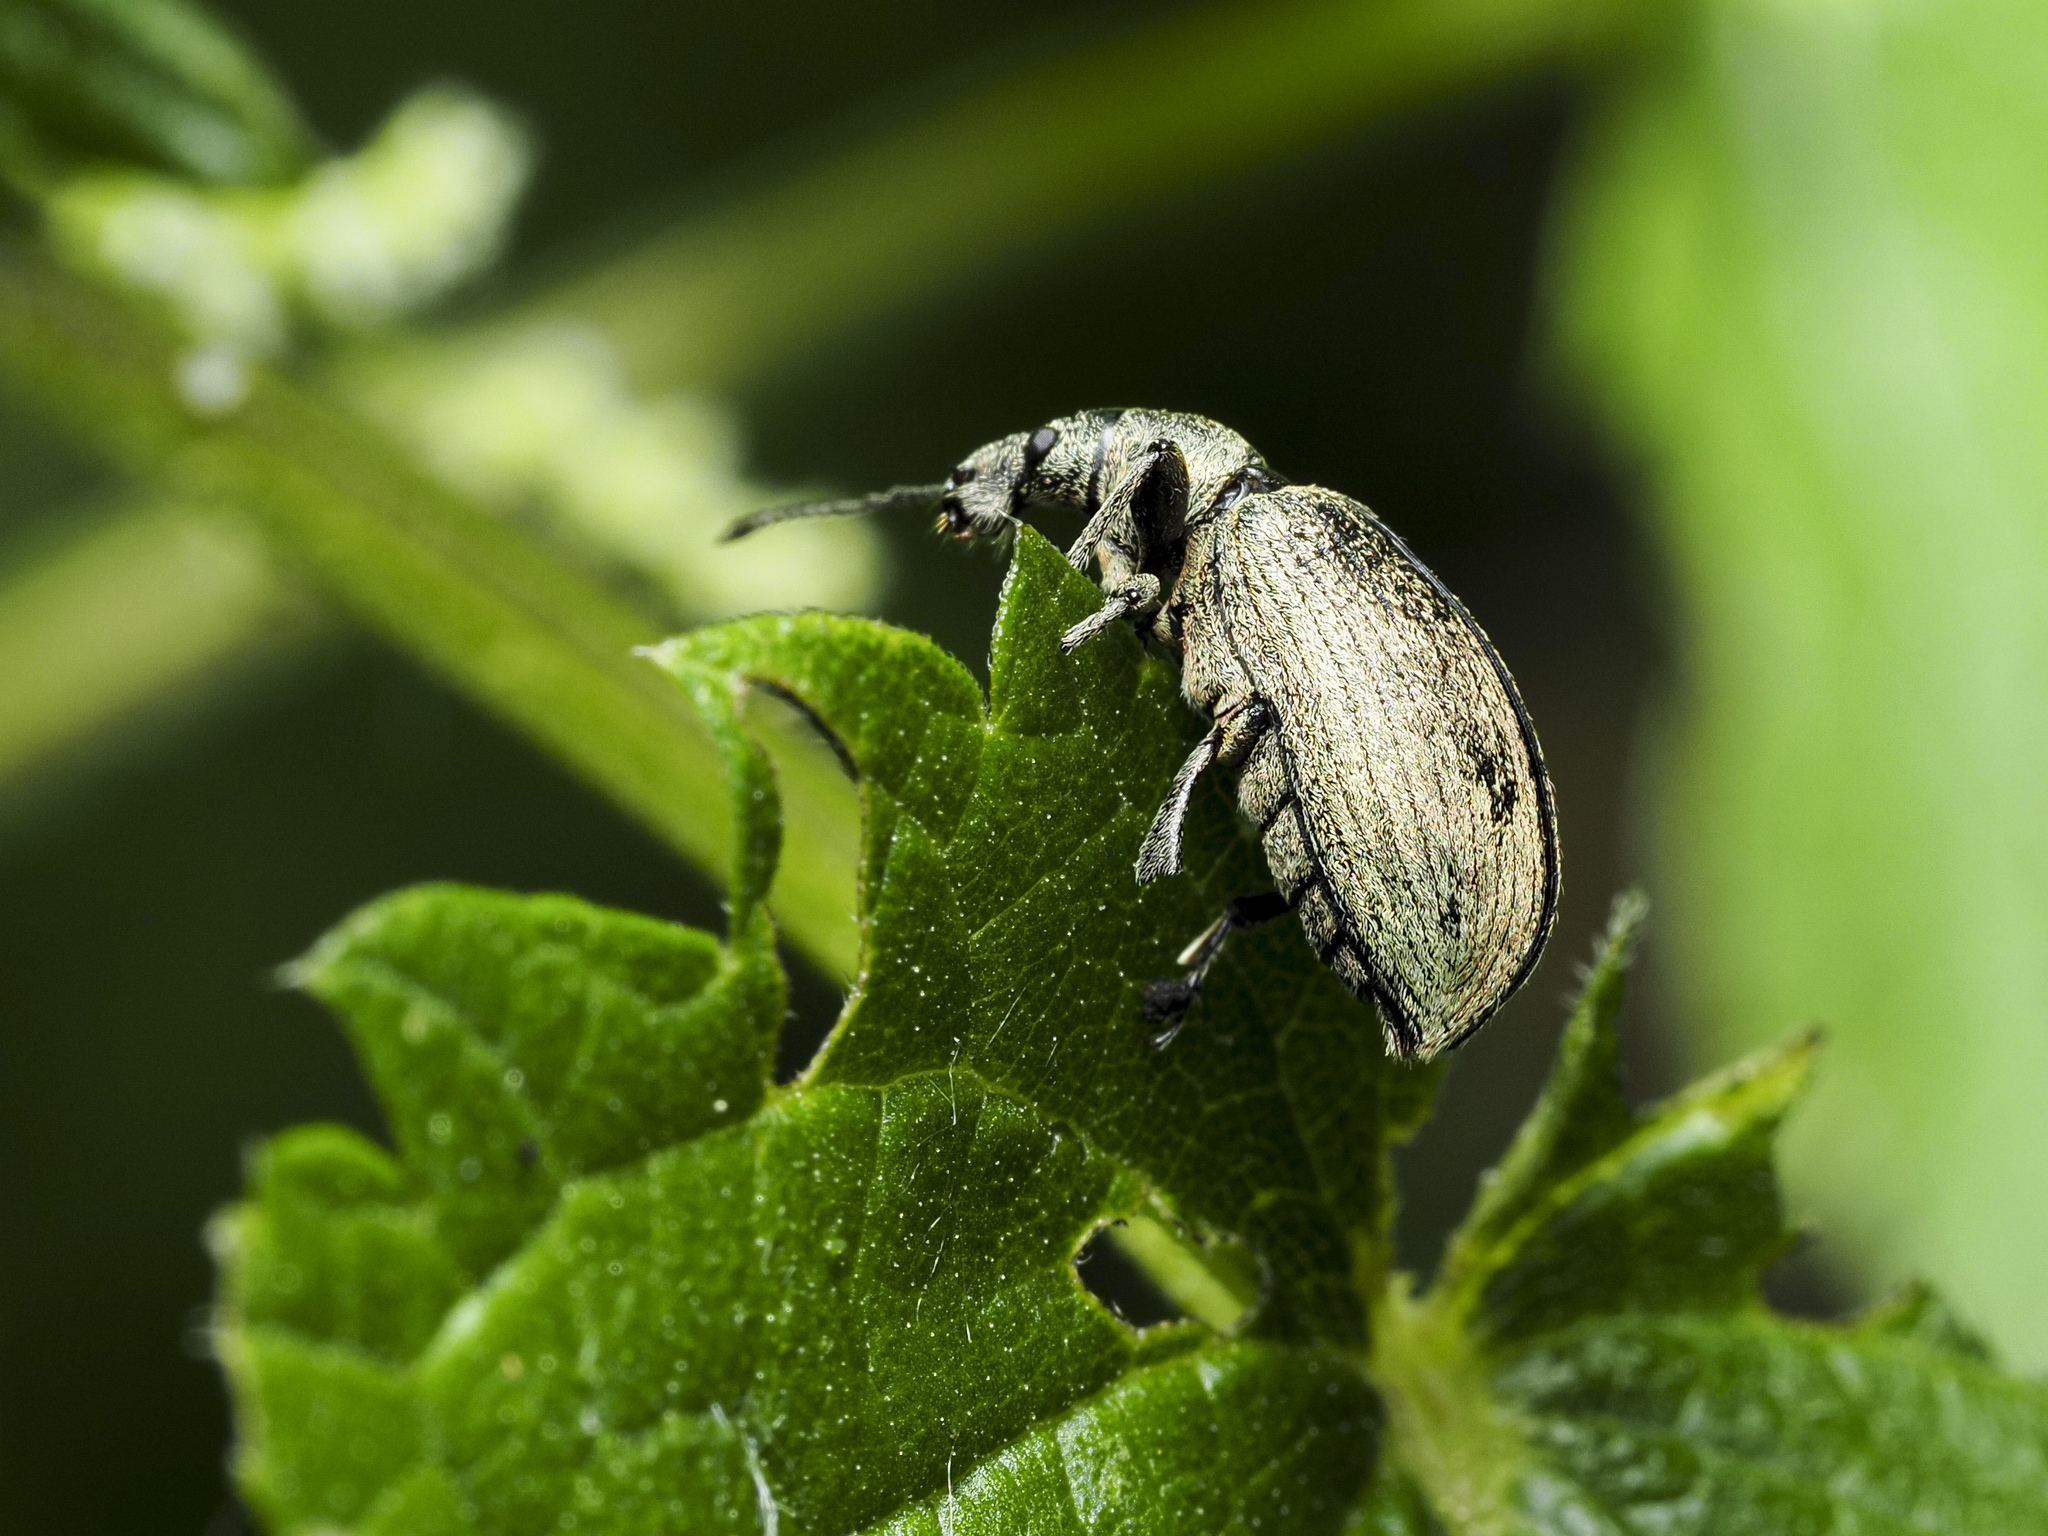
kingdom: Animalia
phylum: Arthropoda
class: Insecta
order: Coleoptera
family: Curculionidae
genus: Phyllobius
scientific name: Phyllobius pomaceus
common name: Green nettle weevil
